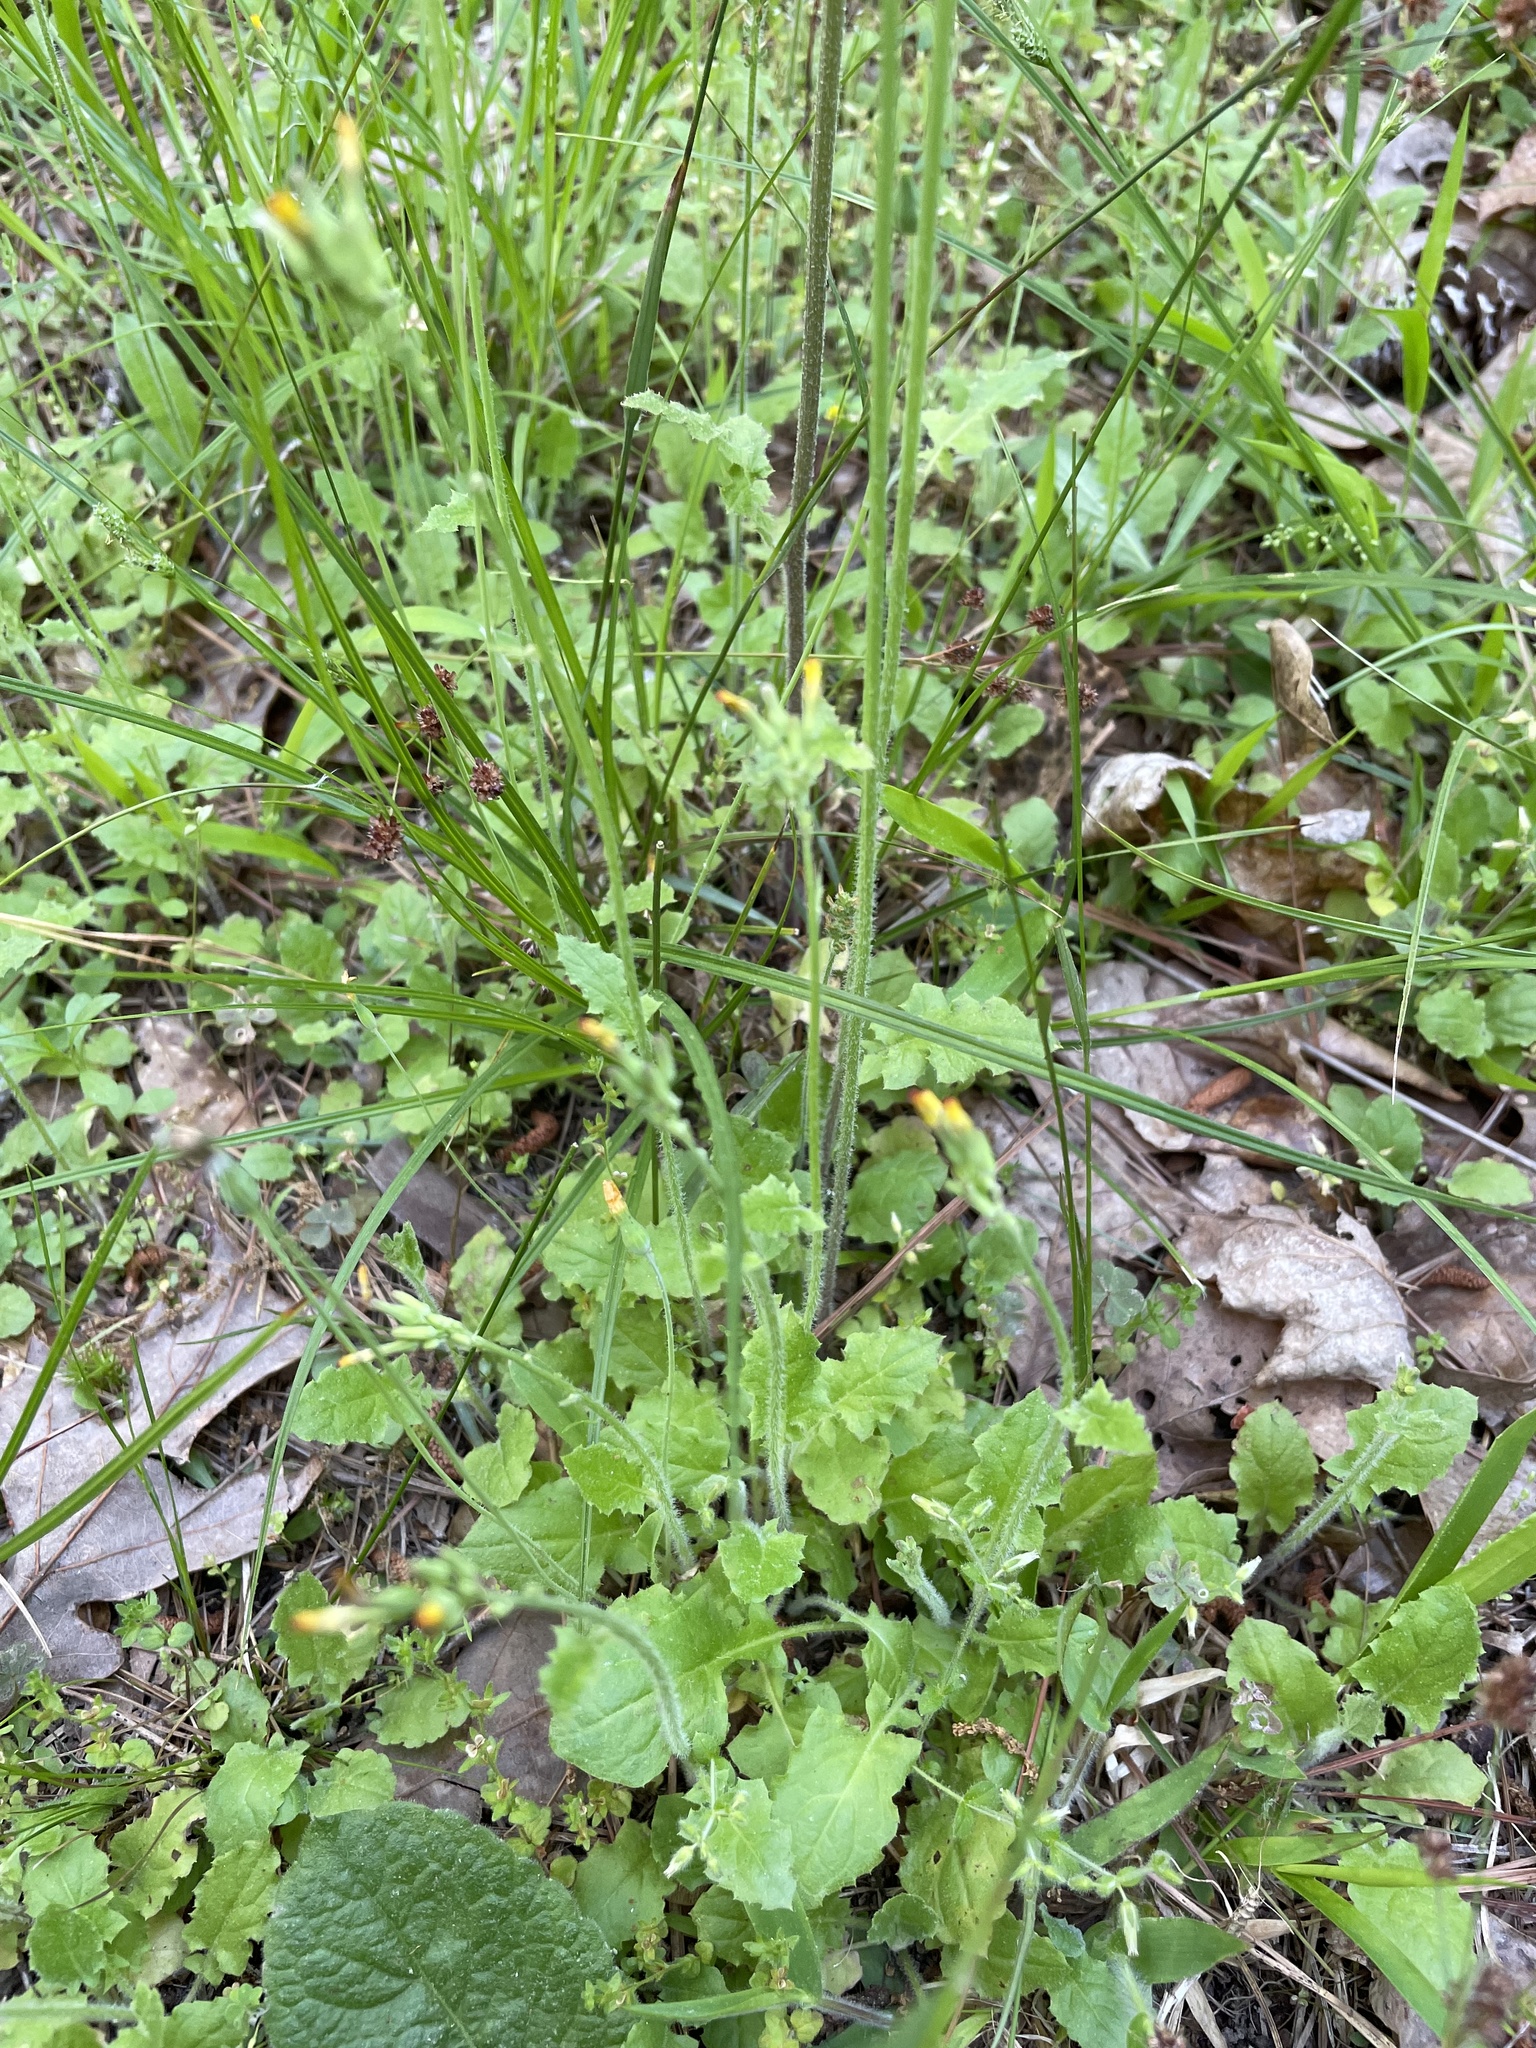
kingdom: Plantae
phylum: Tracheophyta
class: Magnoliopsida
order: Asterales
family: Asteraceae
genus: Youngia
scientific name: Youngia japonica
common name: Oriental false hawksbeard
